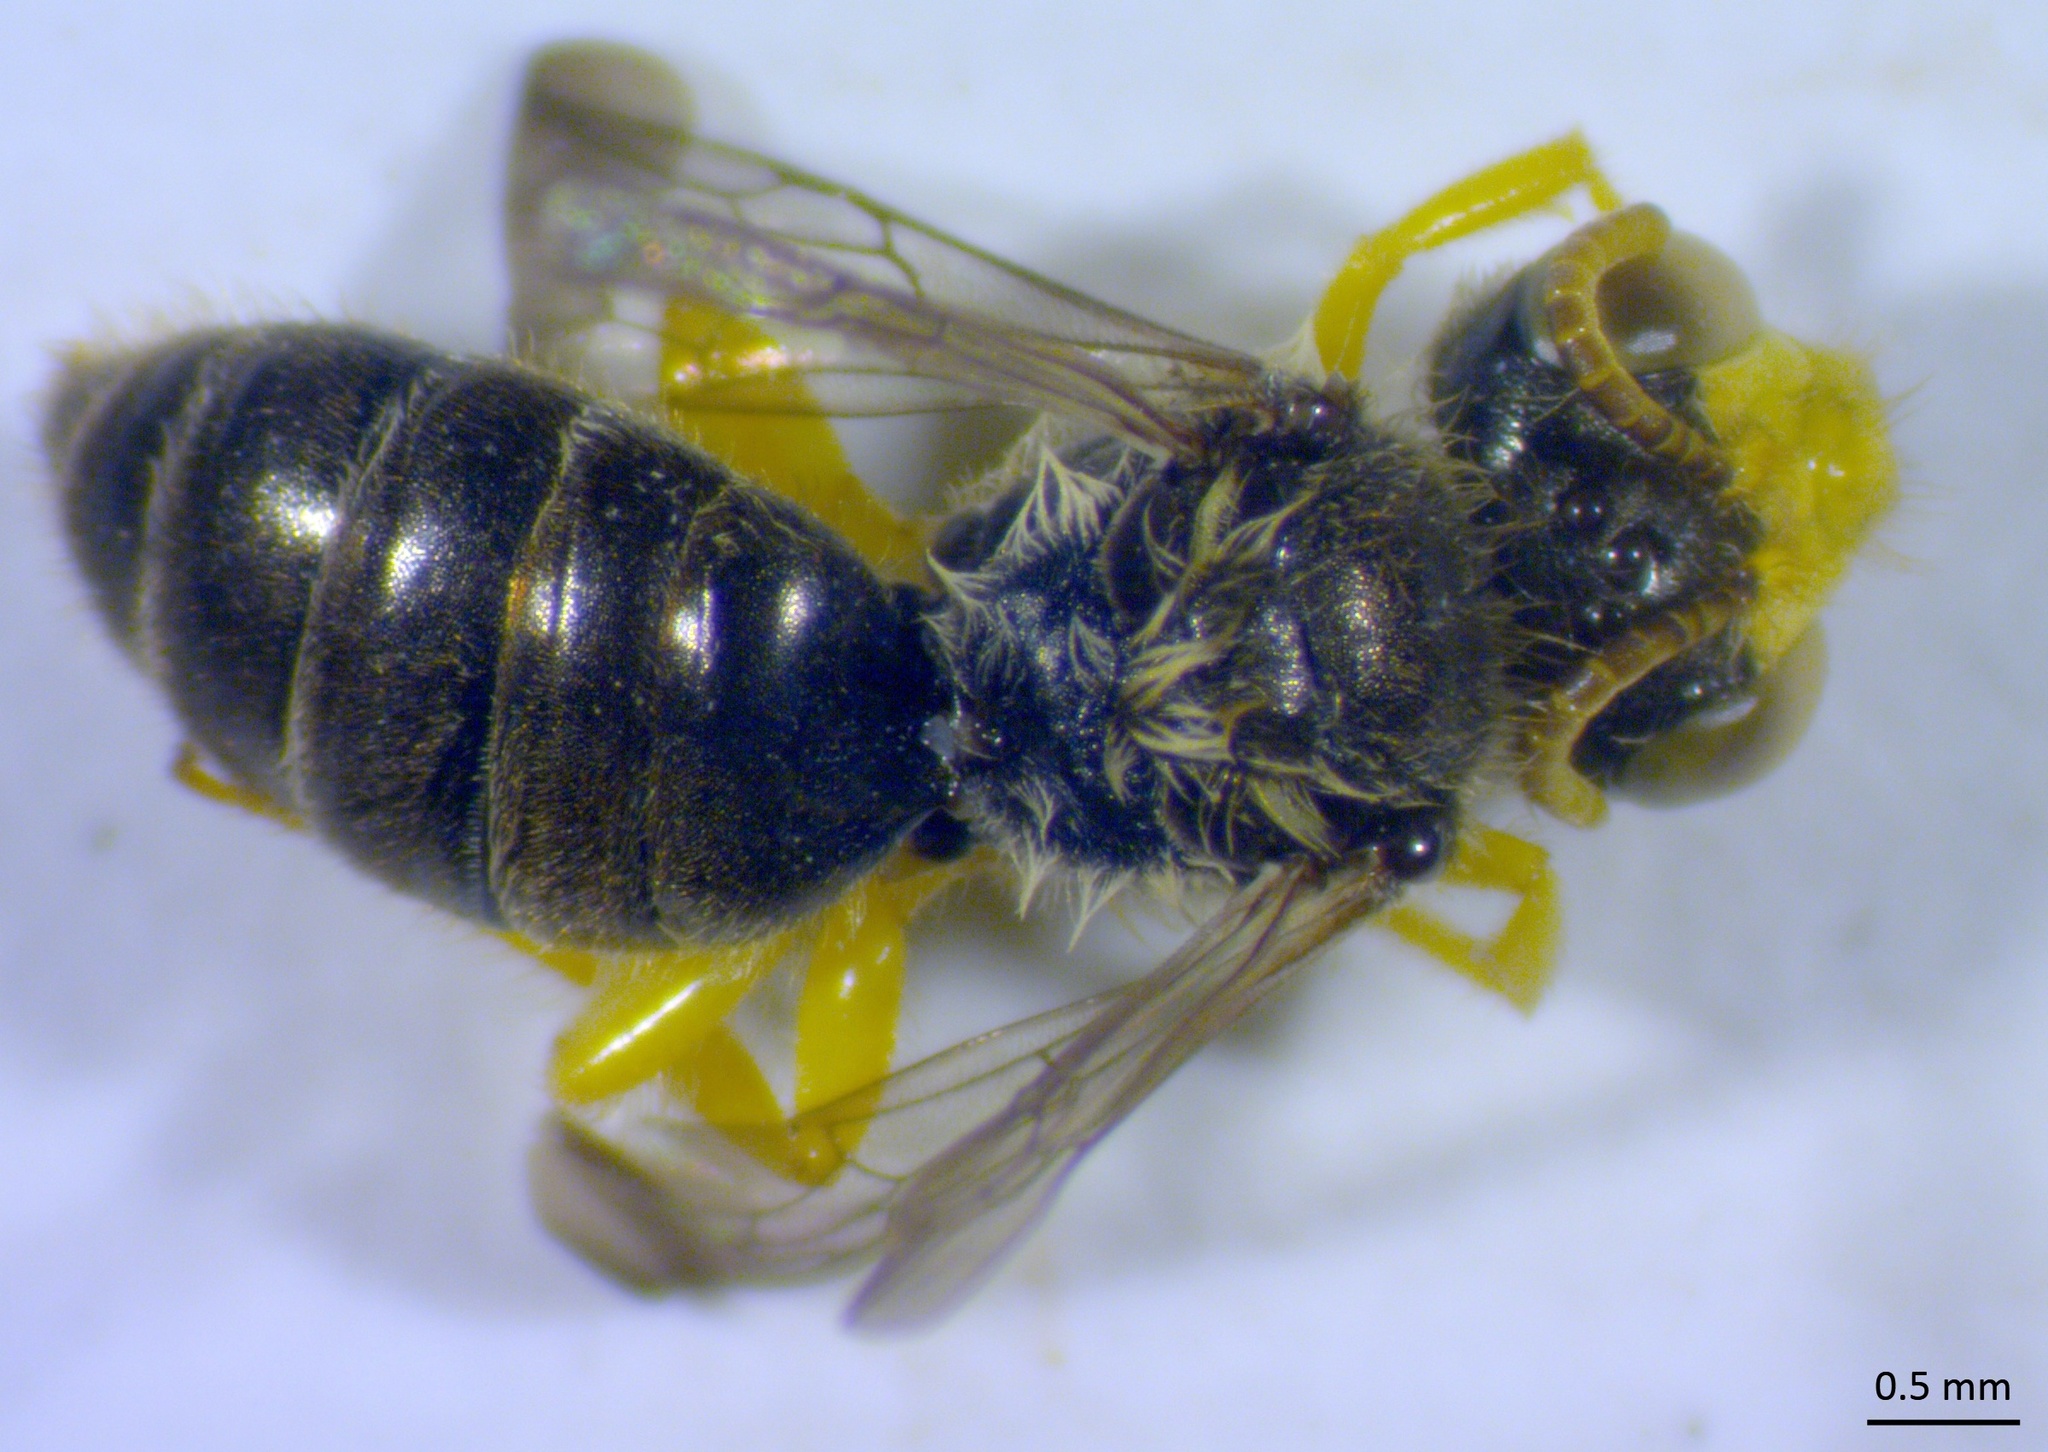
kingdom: Animalia
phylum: Arthropoda
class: Insecta
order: Hymenoptera
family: Andrenidae
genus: Calliopsis
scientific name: Calliopsis andreniformis
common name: Eastern calliopsis bee
